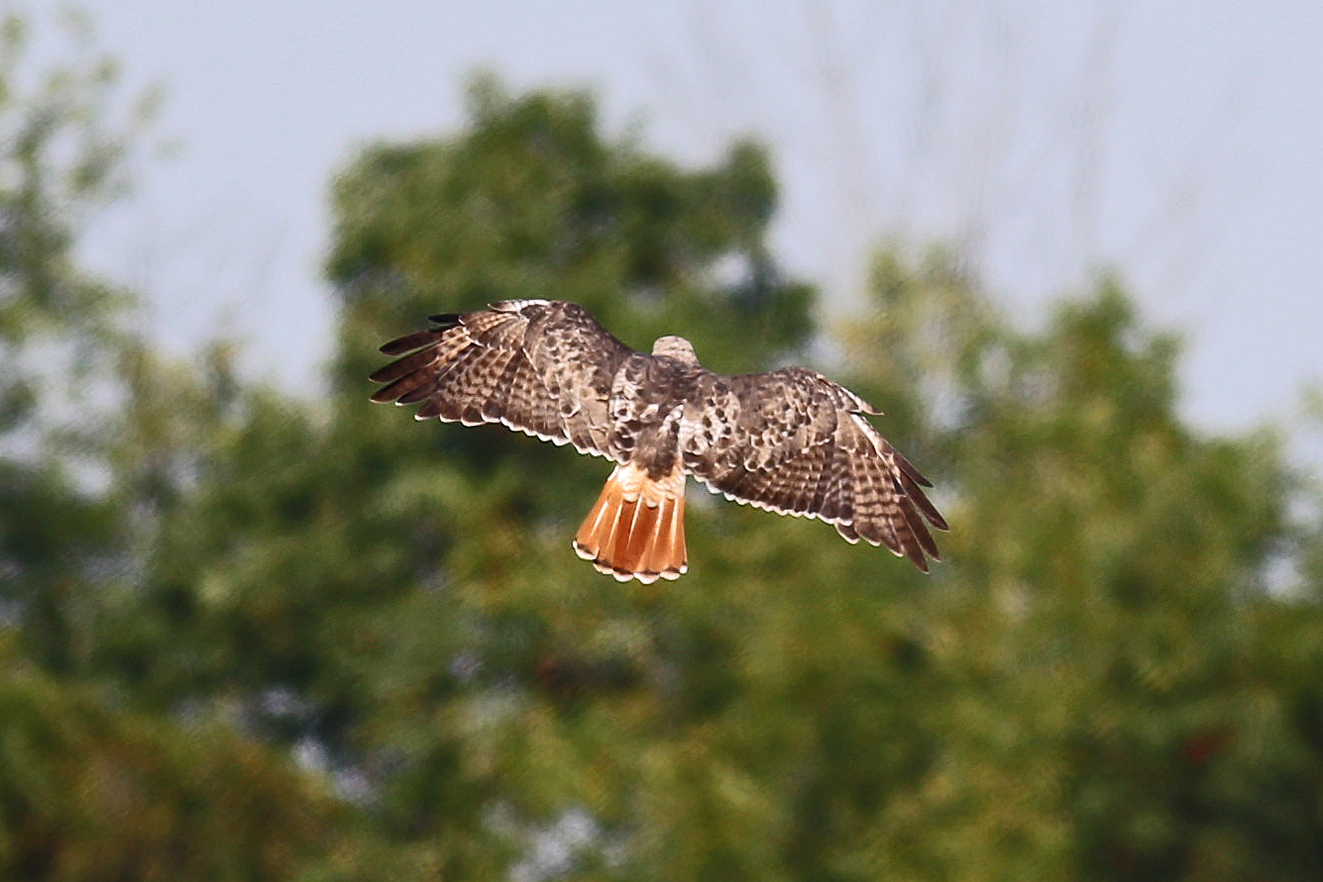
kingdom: Animalia
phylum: Chordata
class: Aves
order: Accipitriformes
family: Accipitridae
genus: Buteo
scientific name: Buteo jamaicensis
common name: Red-tailed hawk
